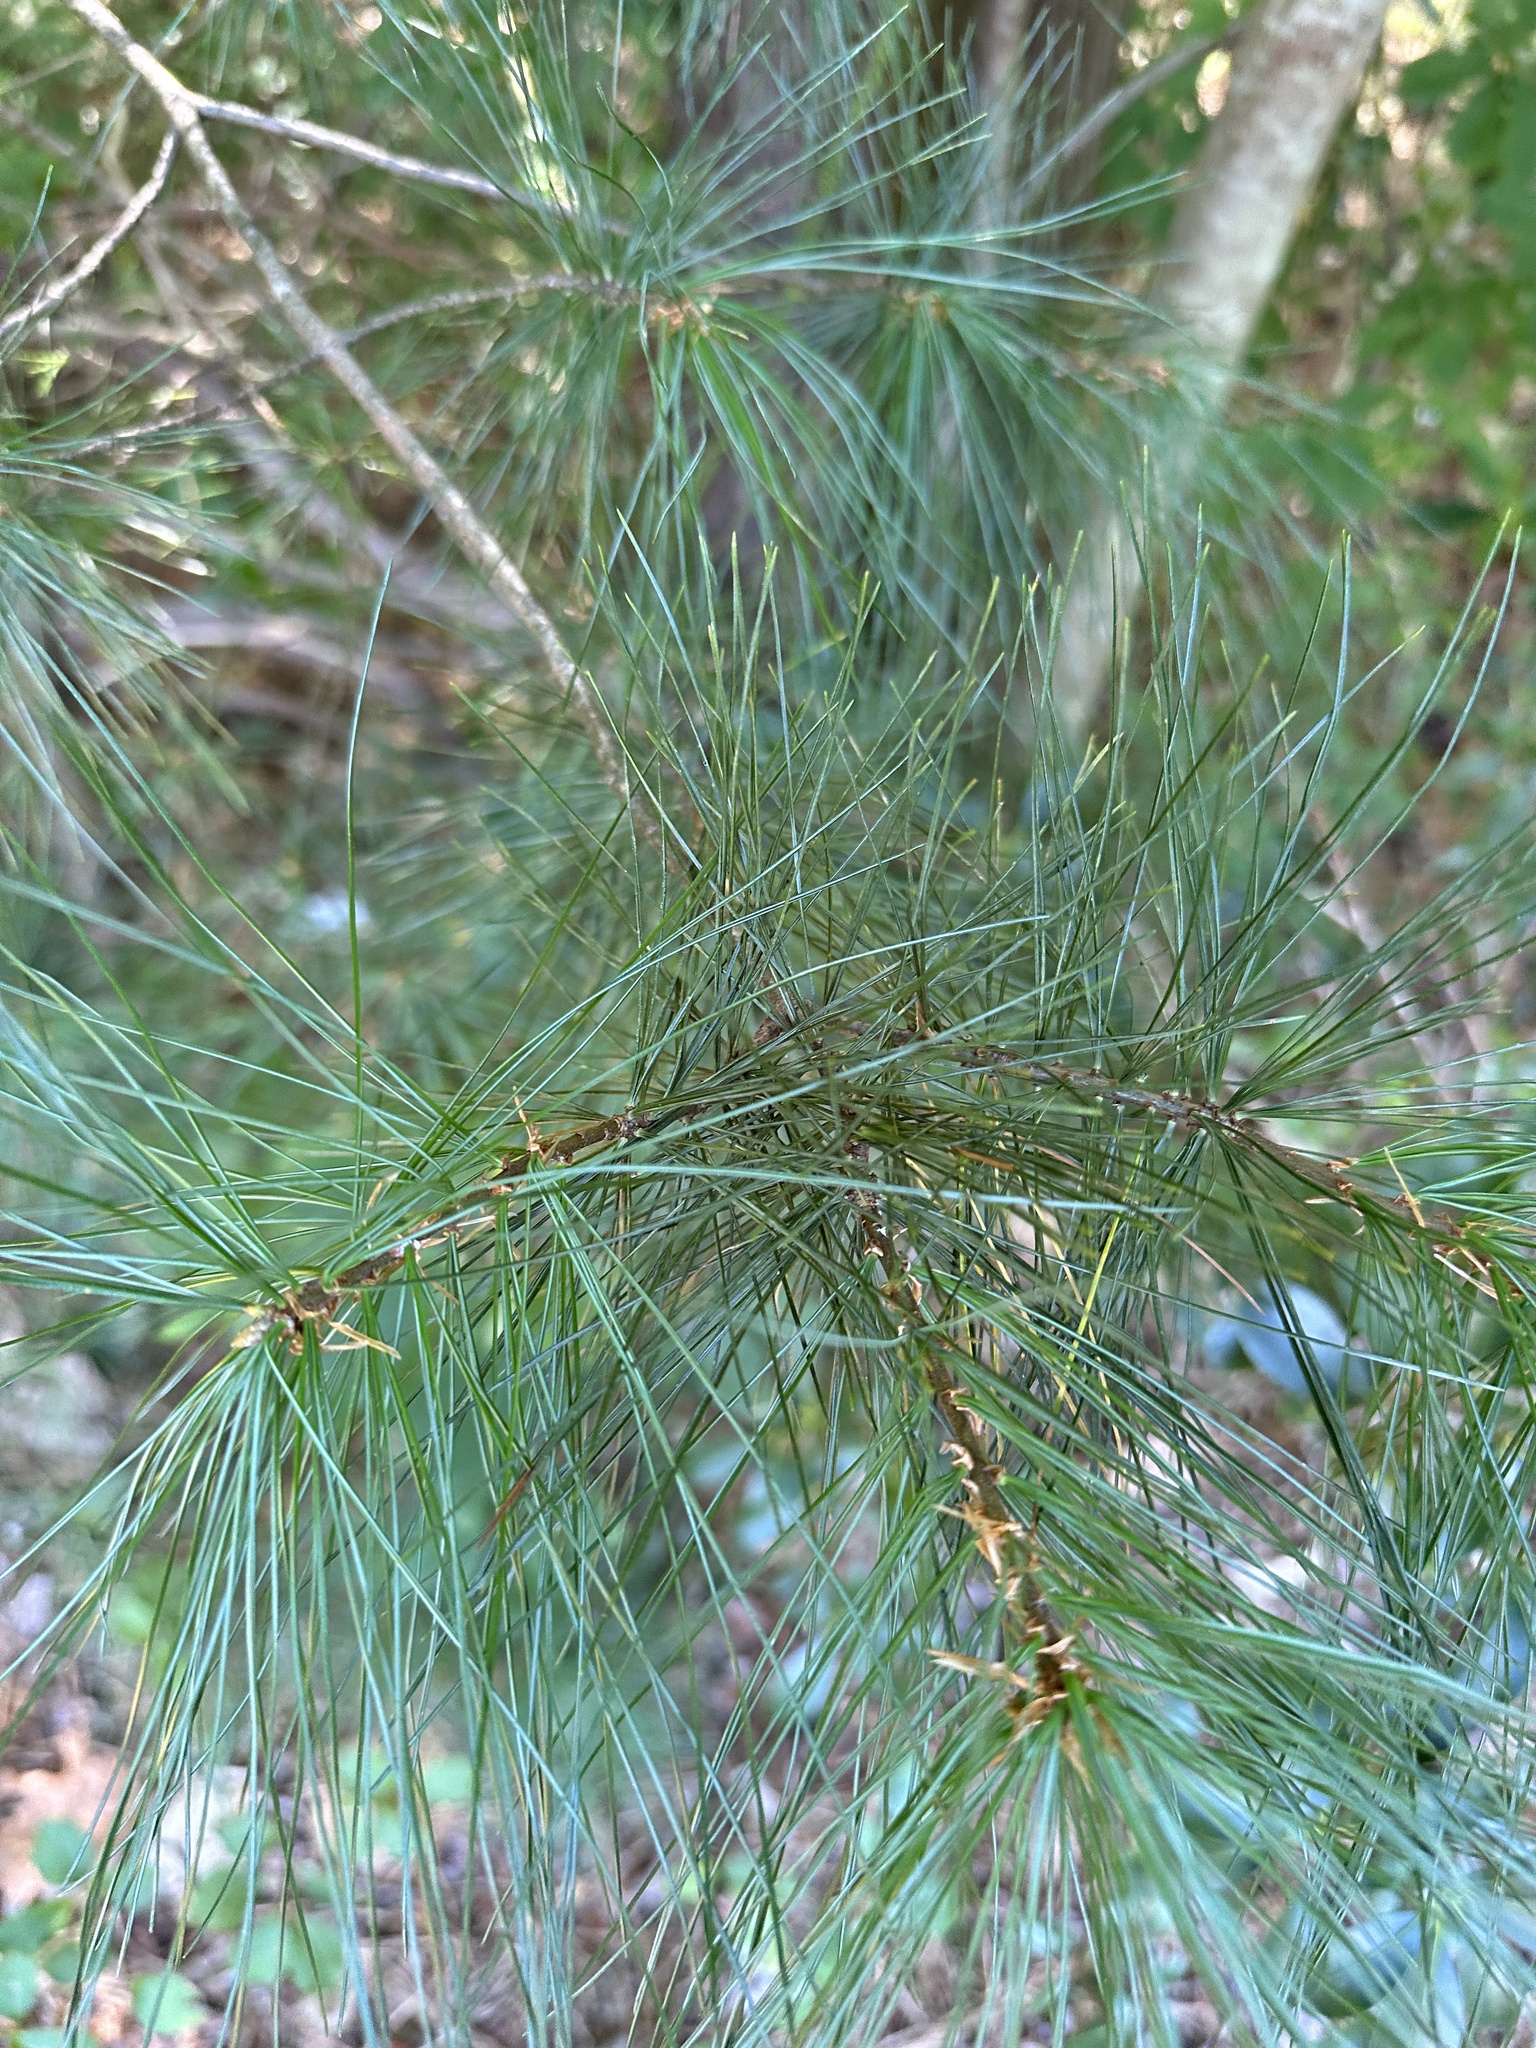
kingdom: Plantae
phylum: Tracheophyta
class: Pinopsida
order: Pinales
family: Pinaceae
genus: Pinus
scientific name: Pinus strobus
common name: Weymouth pine
